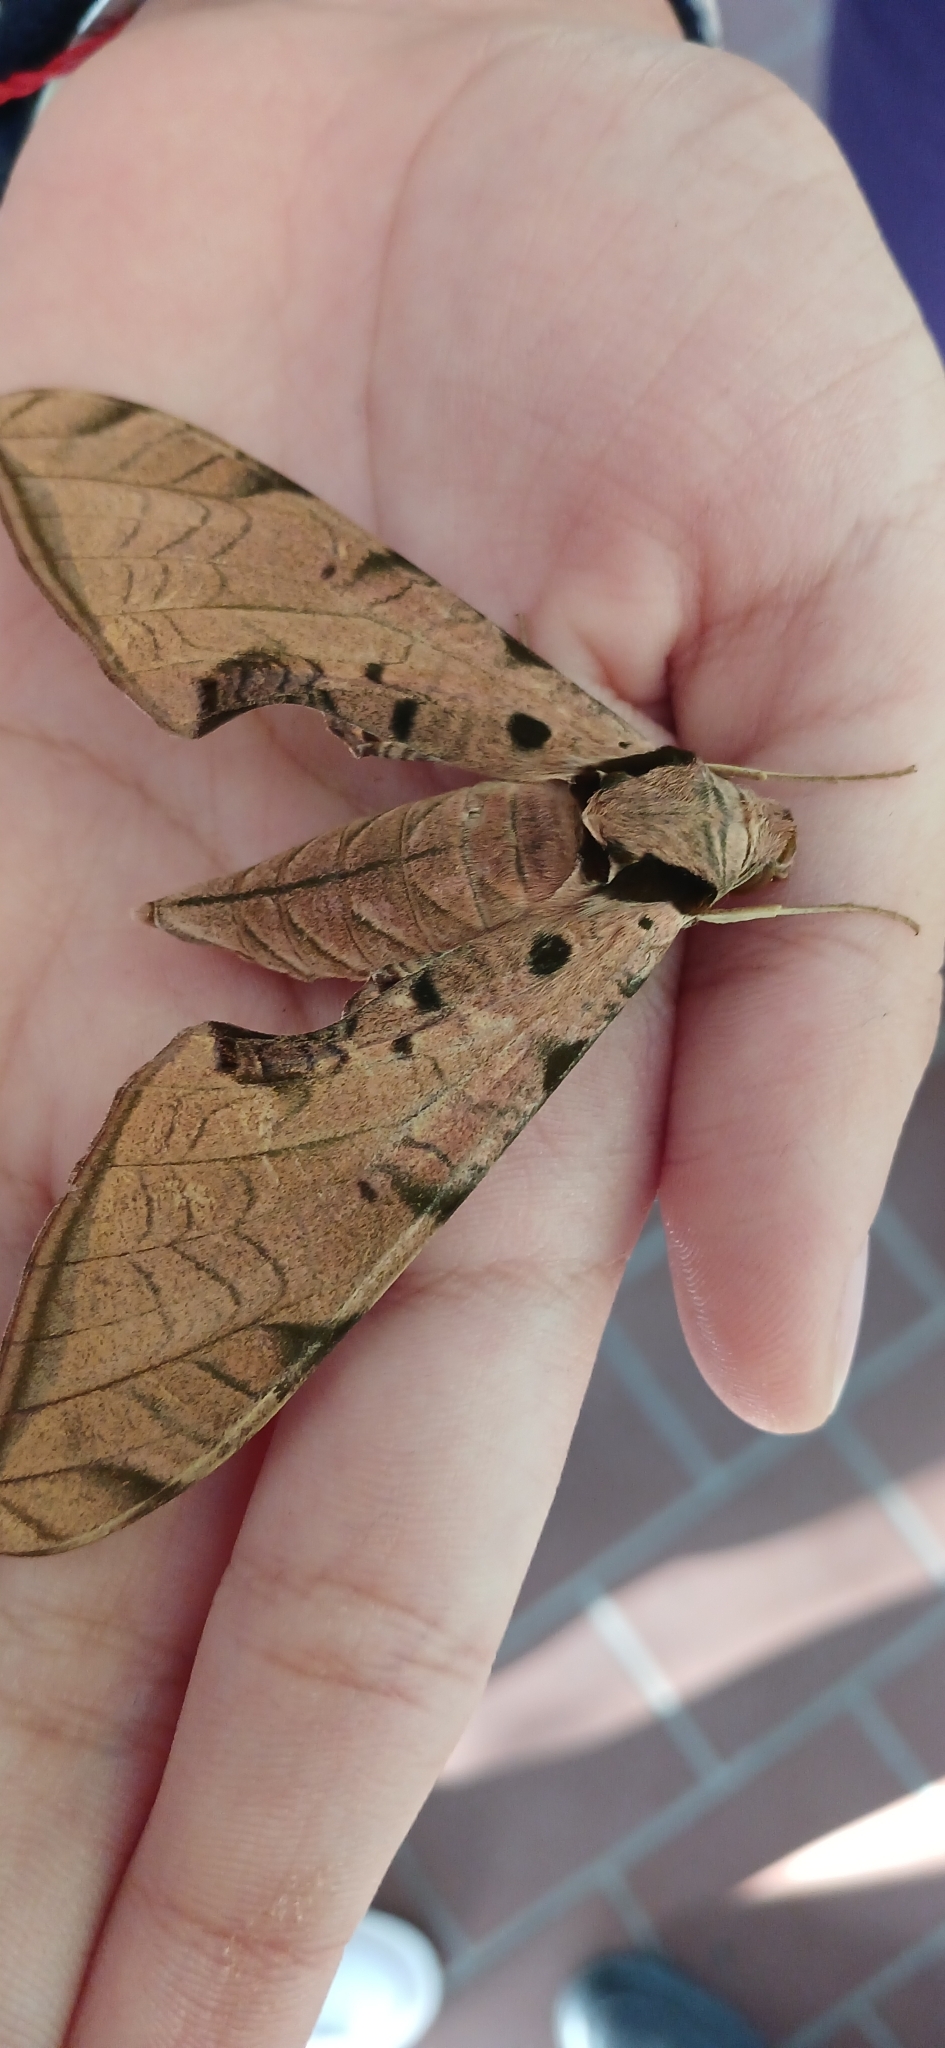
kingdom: Animalia
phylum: Arthropoda
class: Insecta
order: Lepidoptera
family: Sphingidae
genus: Protambulyx
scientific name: Protambulyx strigilis
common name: Streaked sphinx
